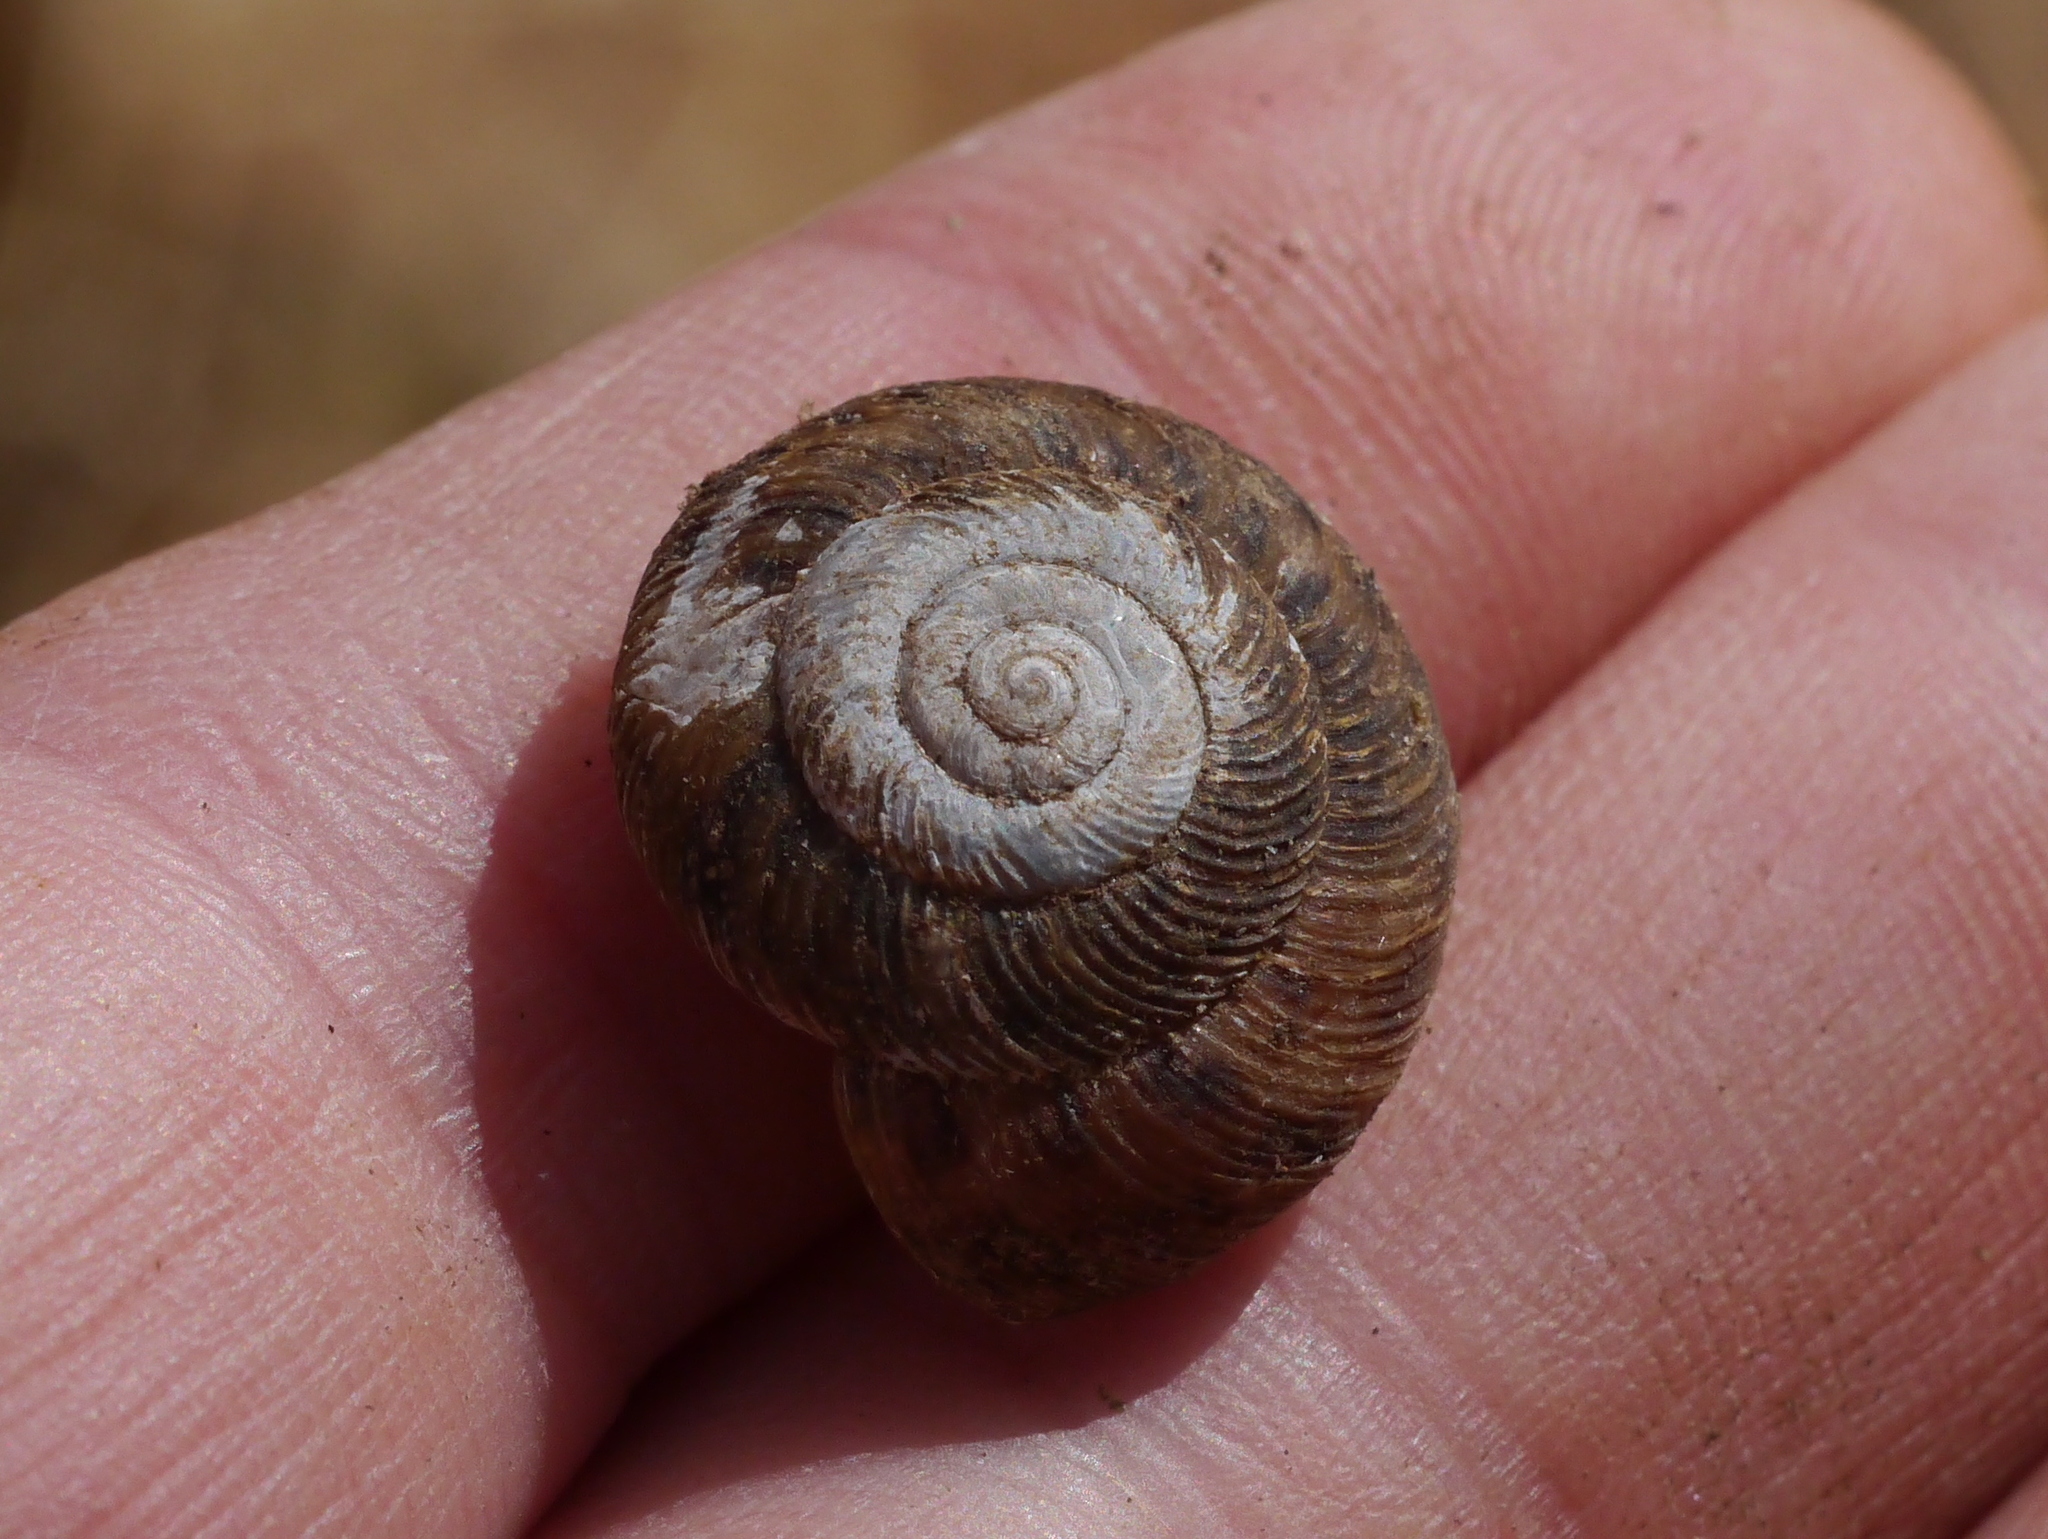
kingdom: Animalia
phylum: Mollusca
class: Gastropoda
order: Stylommatophora
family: Discidae
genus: Anguispira
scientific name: Anguispira alternata
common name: Flamed tigersnail
